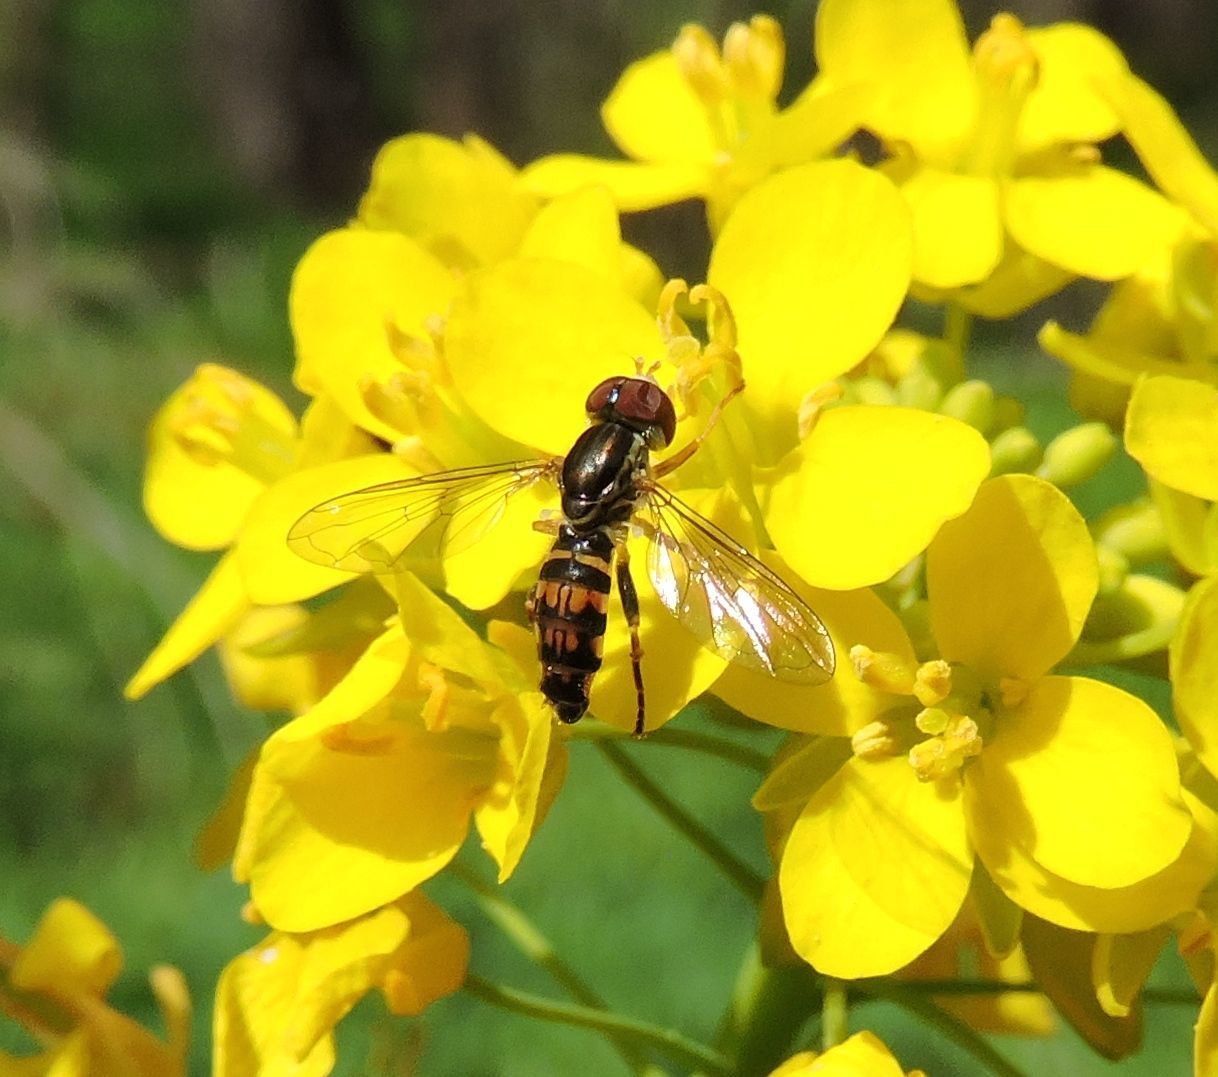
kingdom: Animalia
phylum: Arthropoda
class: Insecta
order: Diptera
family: Syrphidae
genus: Toxomerus
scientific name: Toxomerus geminatus
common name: Eastern calligrapher
